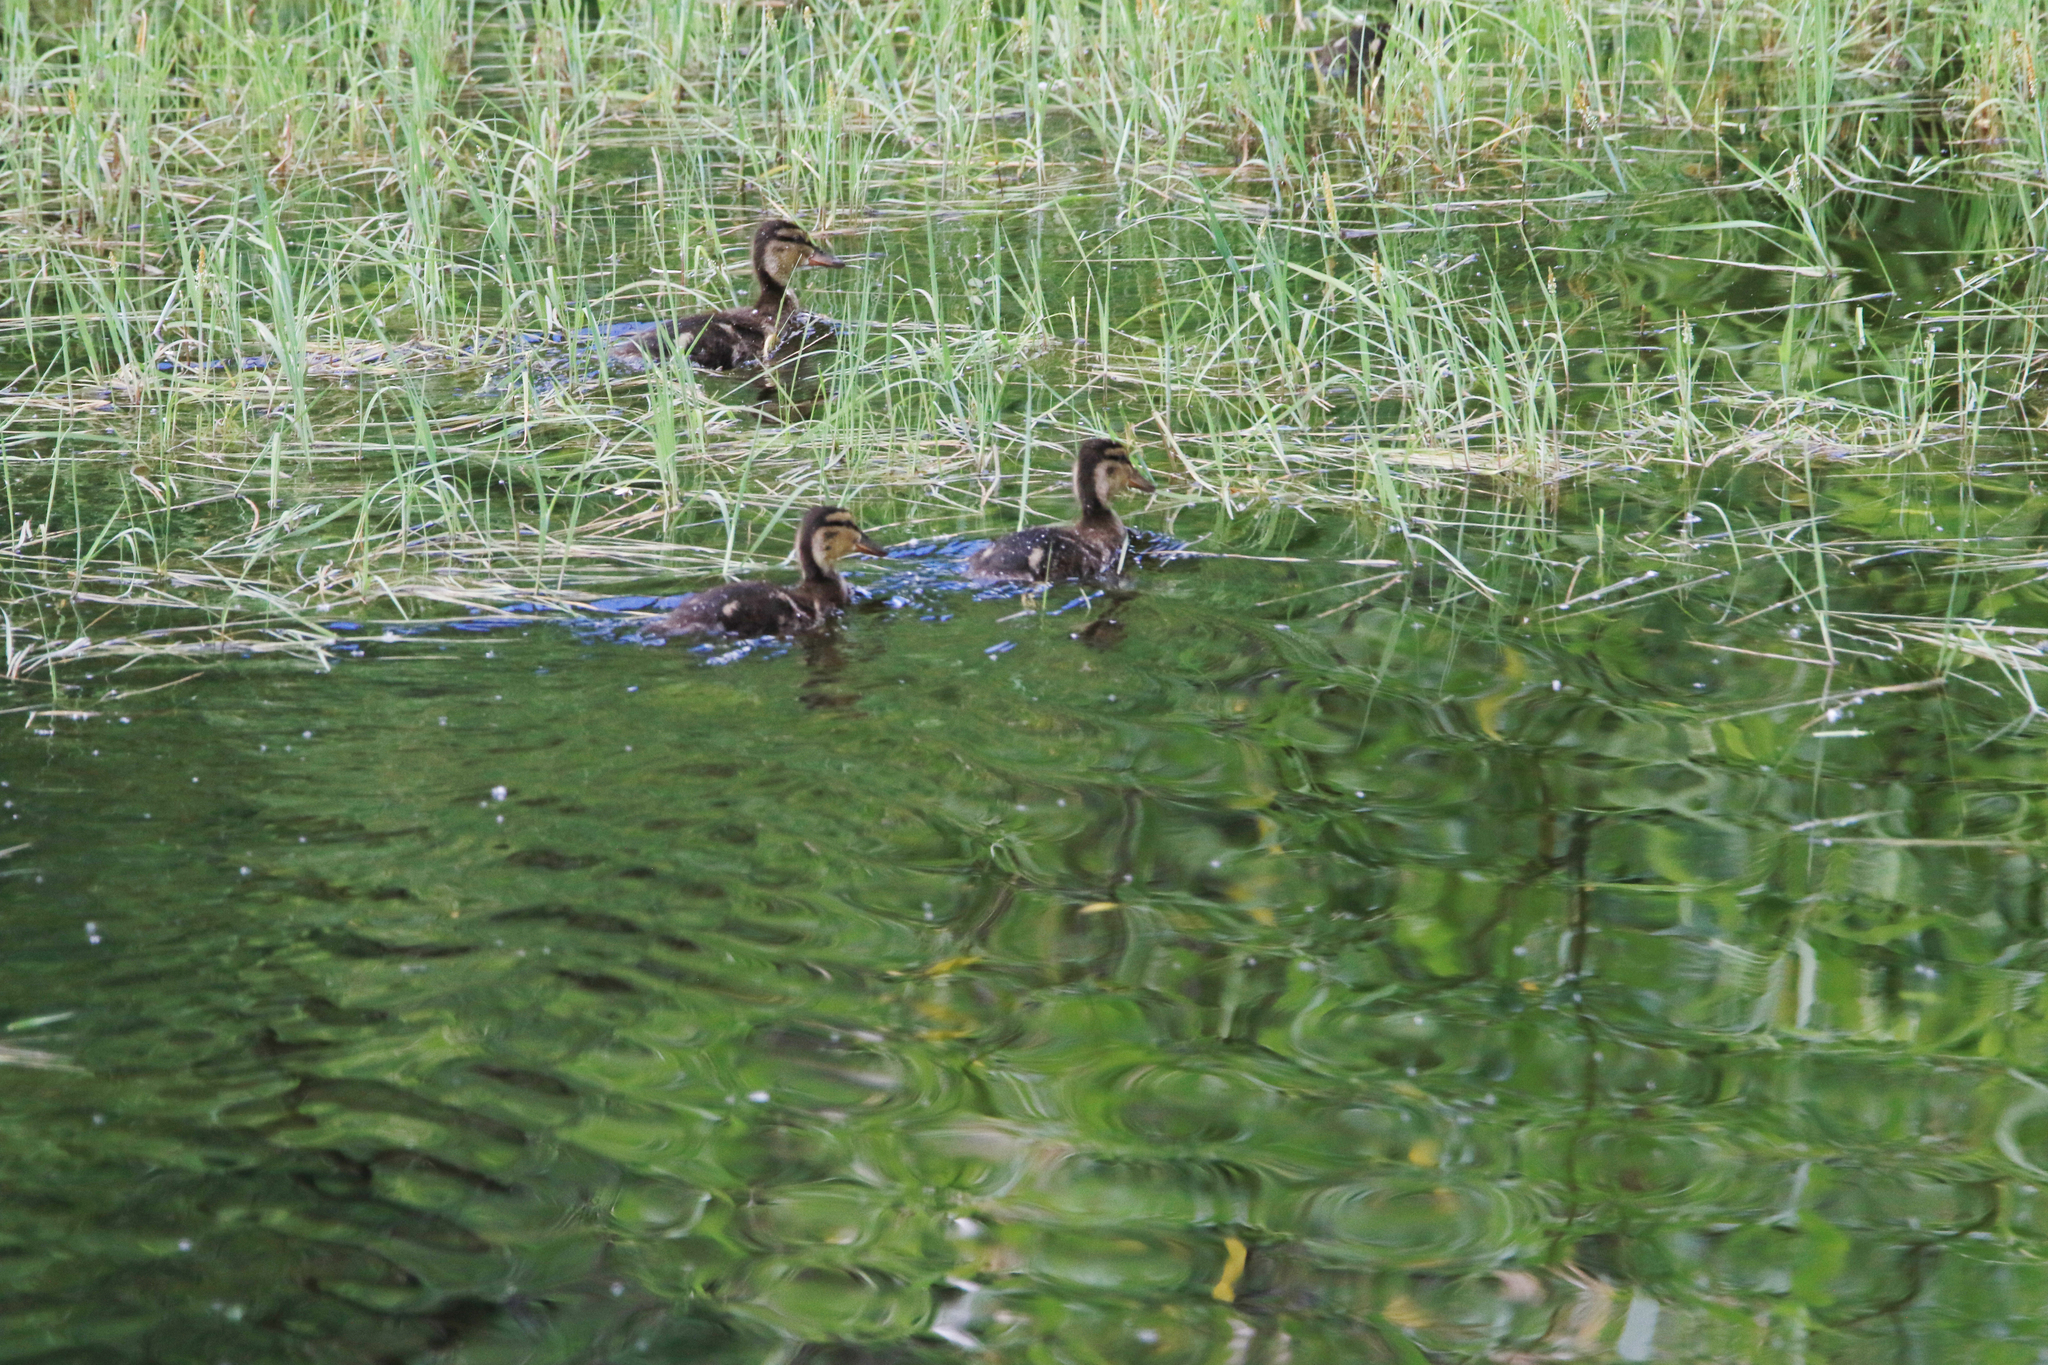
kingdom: Animalia
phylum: Chordata
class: Aves
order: Anseriformes
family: Anatidae
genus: Anas
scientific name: Anas crecca
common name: Eurasian teal
